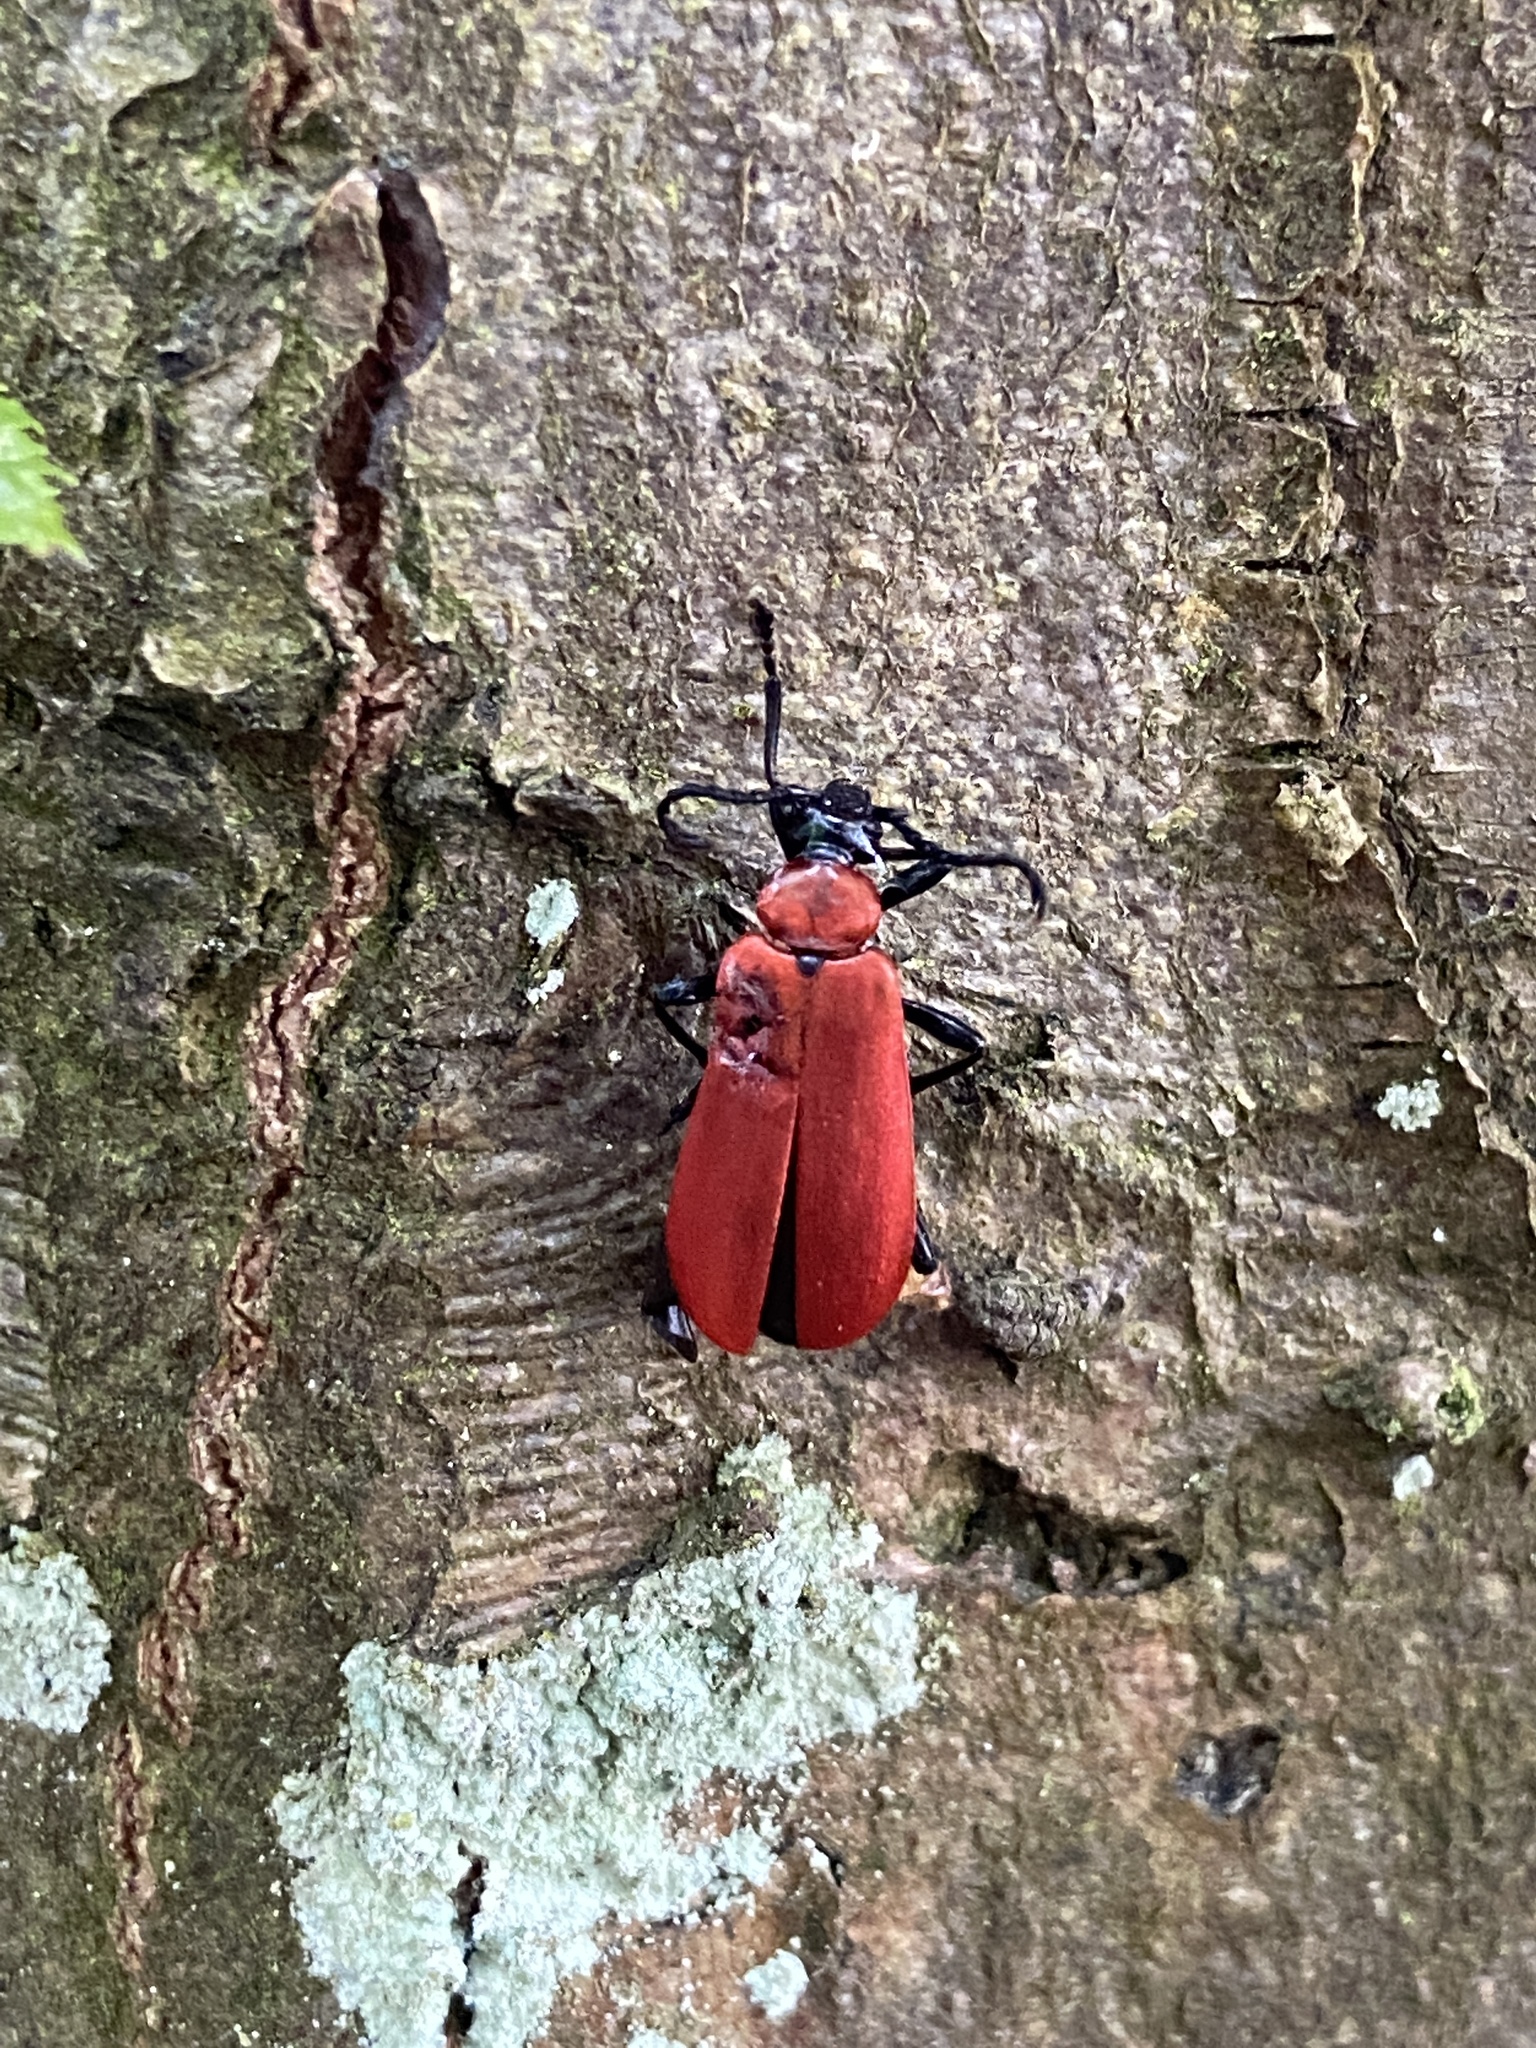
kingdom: Animalia
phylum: Arthropoda
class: Insecta
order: Coleoptera
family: Pyrochroidae
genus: Pyrochroa
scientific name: Pyrochroa coccinea
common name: Black-headed cardinal beetle
